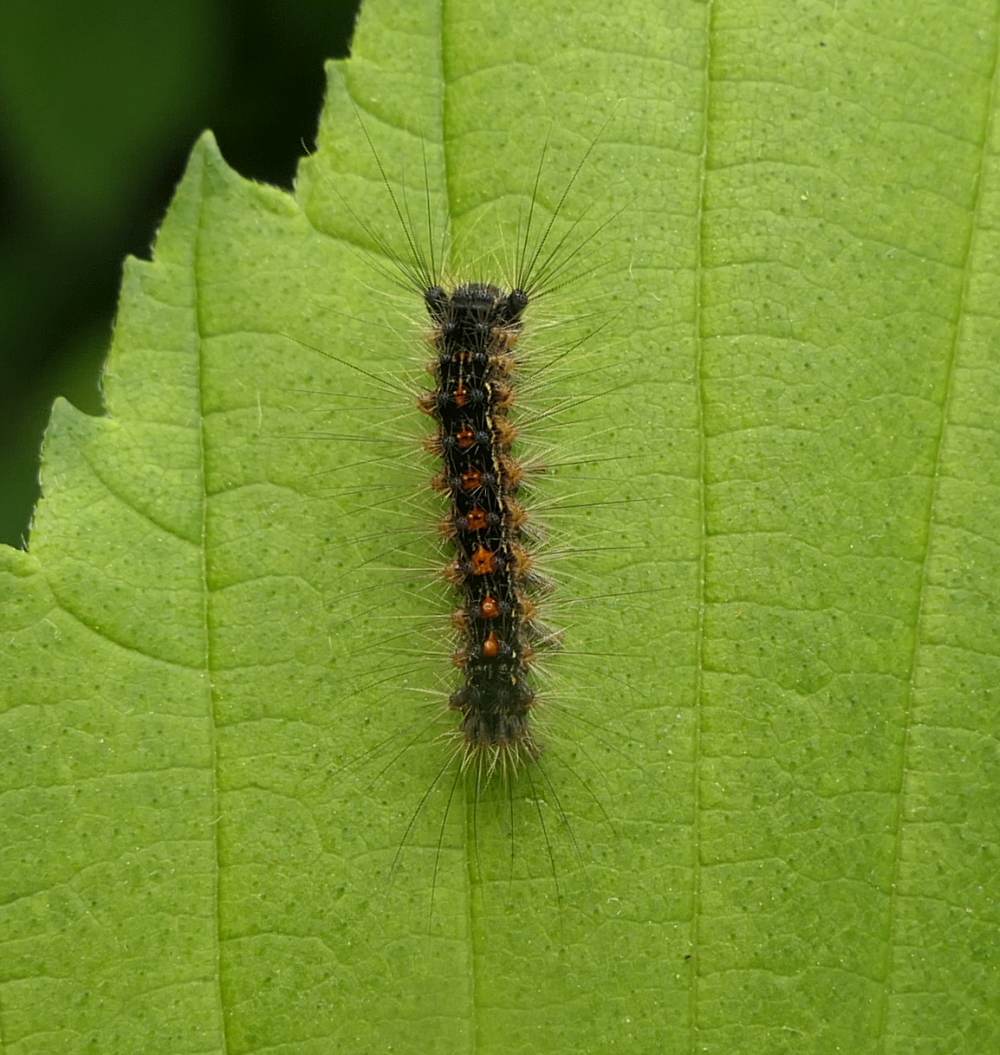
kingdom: Animalia
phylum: Arthropoda
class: Insecta
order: Lepidoptera
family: Erebidae
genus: Lymantria
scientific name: Lymantria dispar
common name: Gypsy moth
